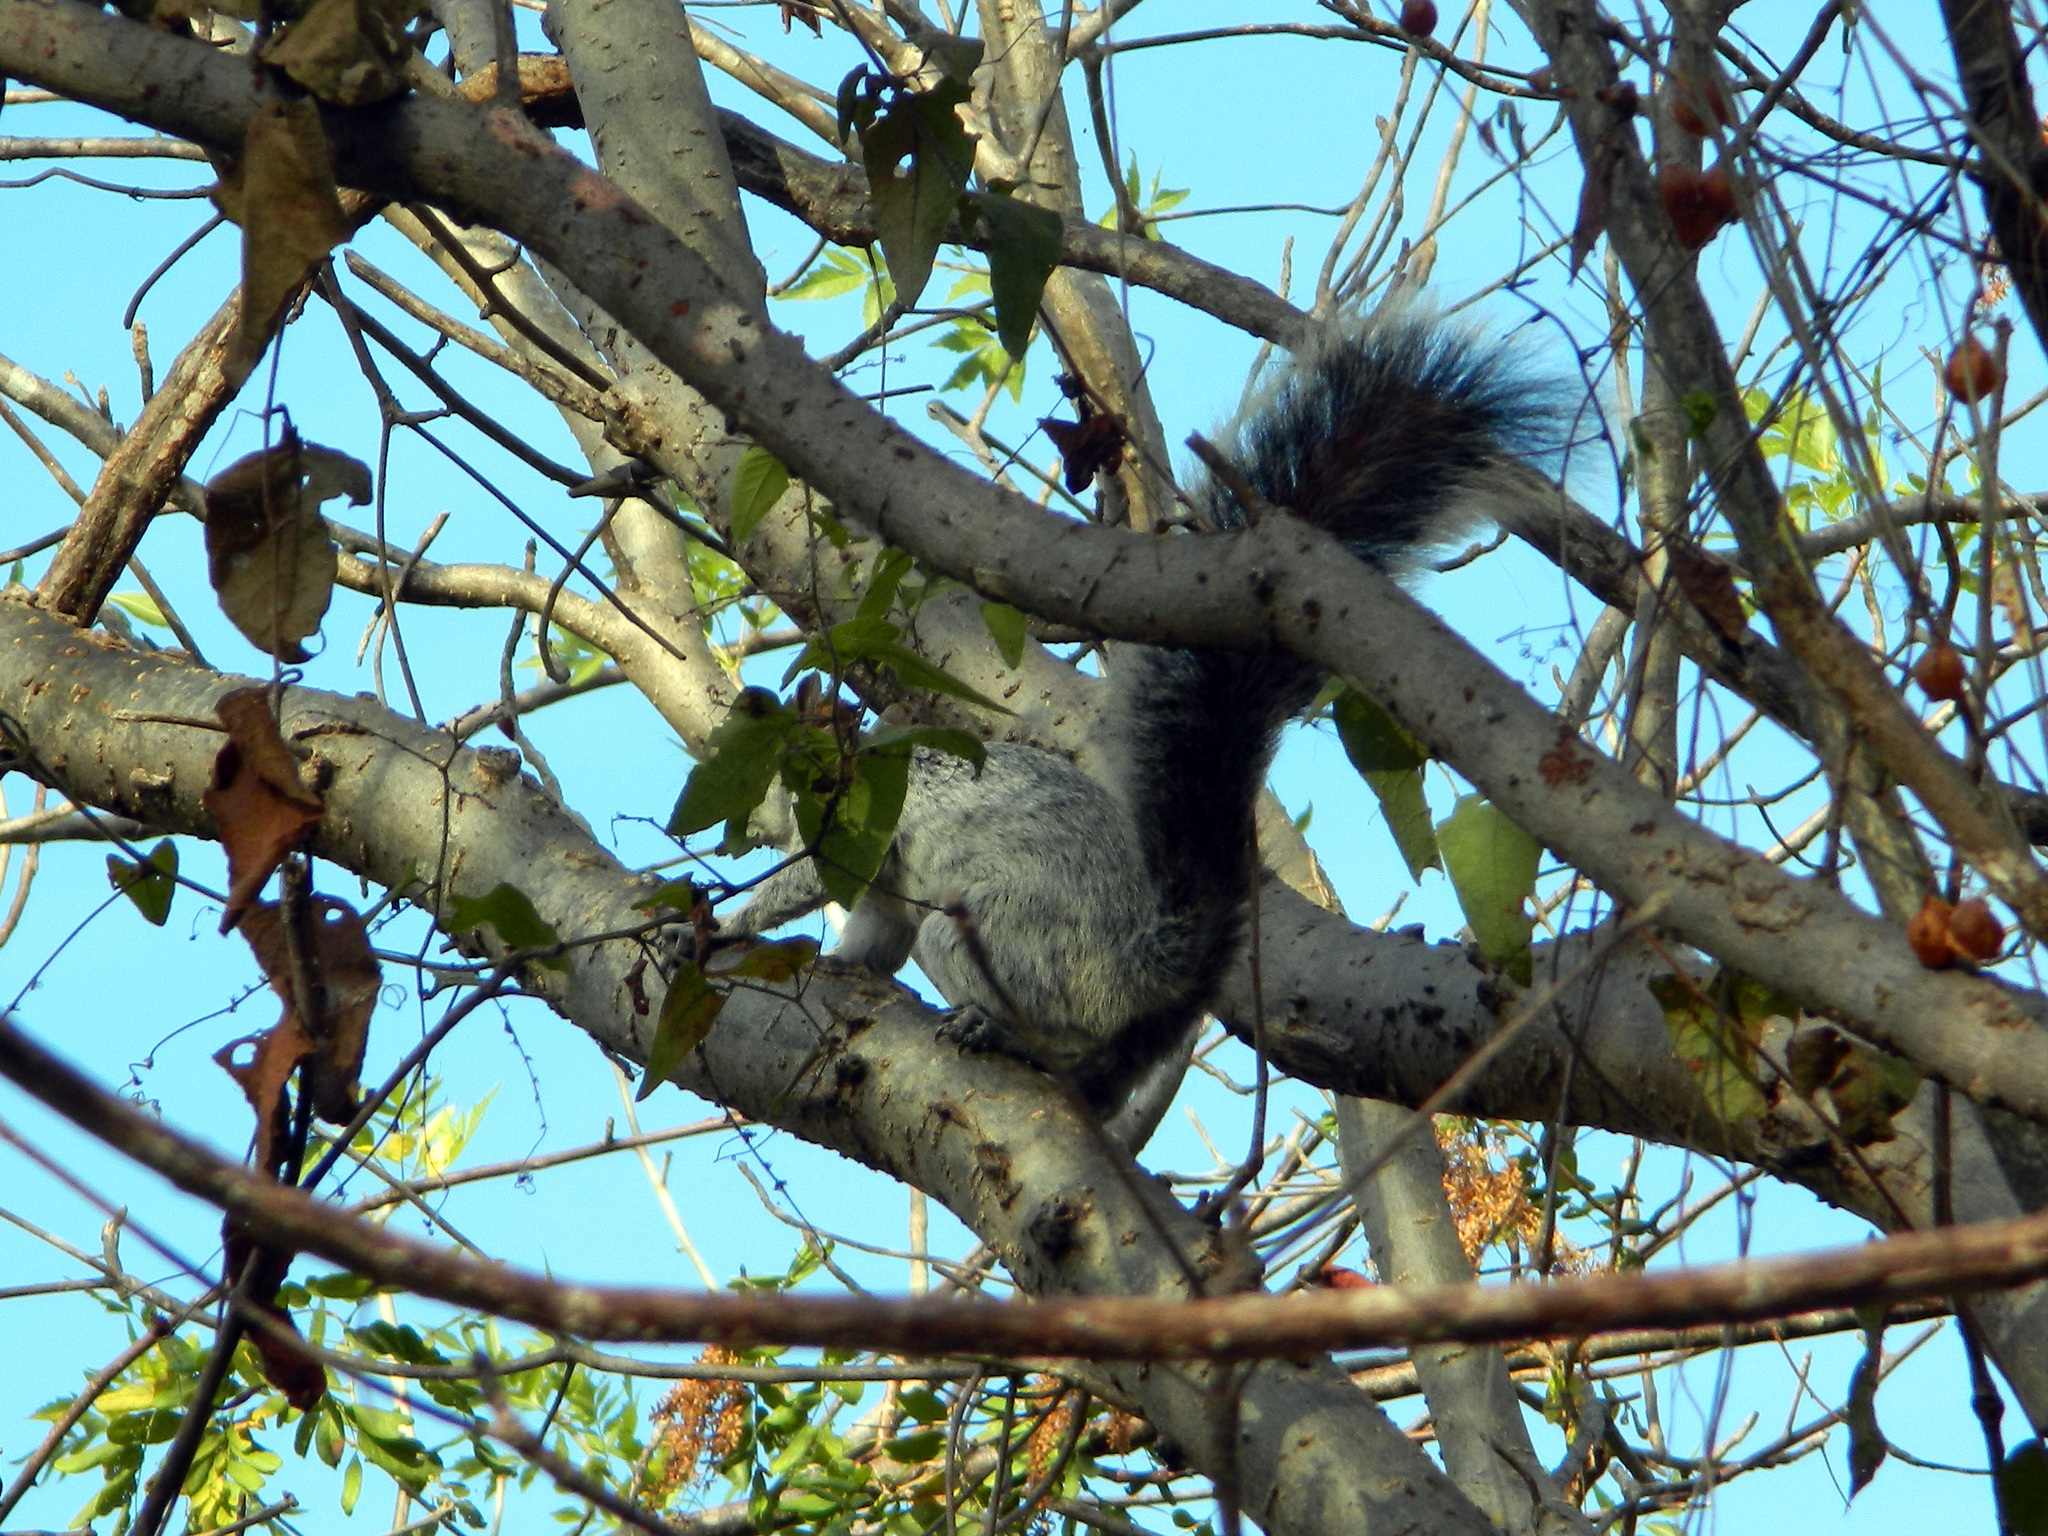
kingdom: Animalia
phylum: Chordata
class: Mammalia
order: Rodentia
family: Sciuridae
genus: Sciurus
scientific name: Sciurus aureogaster
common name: Red-bellied squirrel
